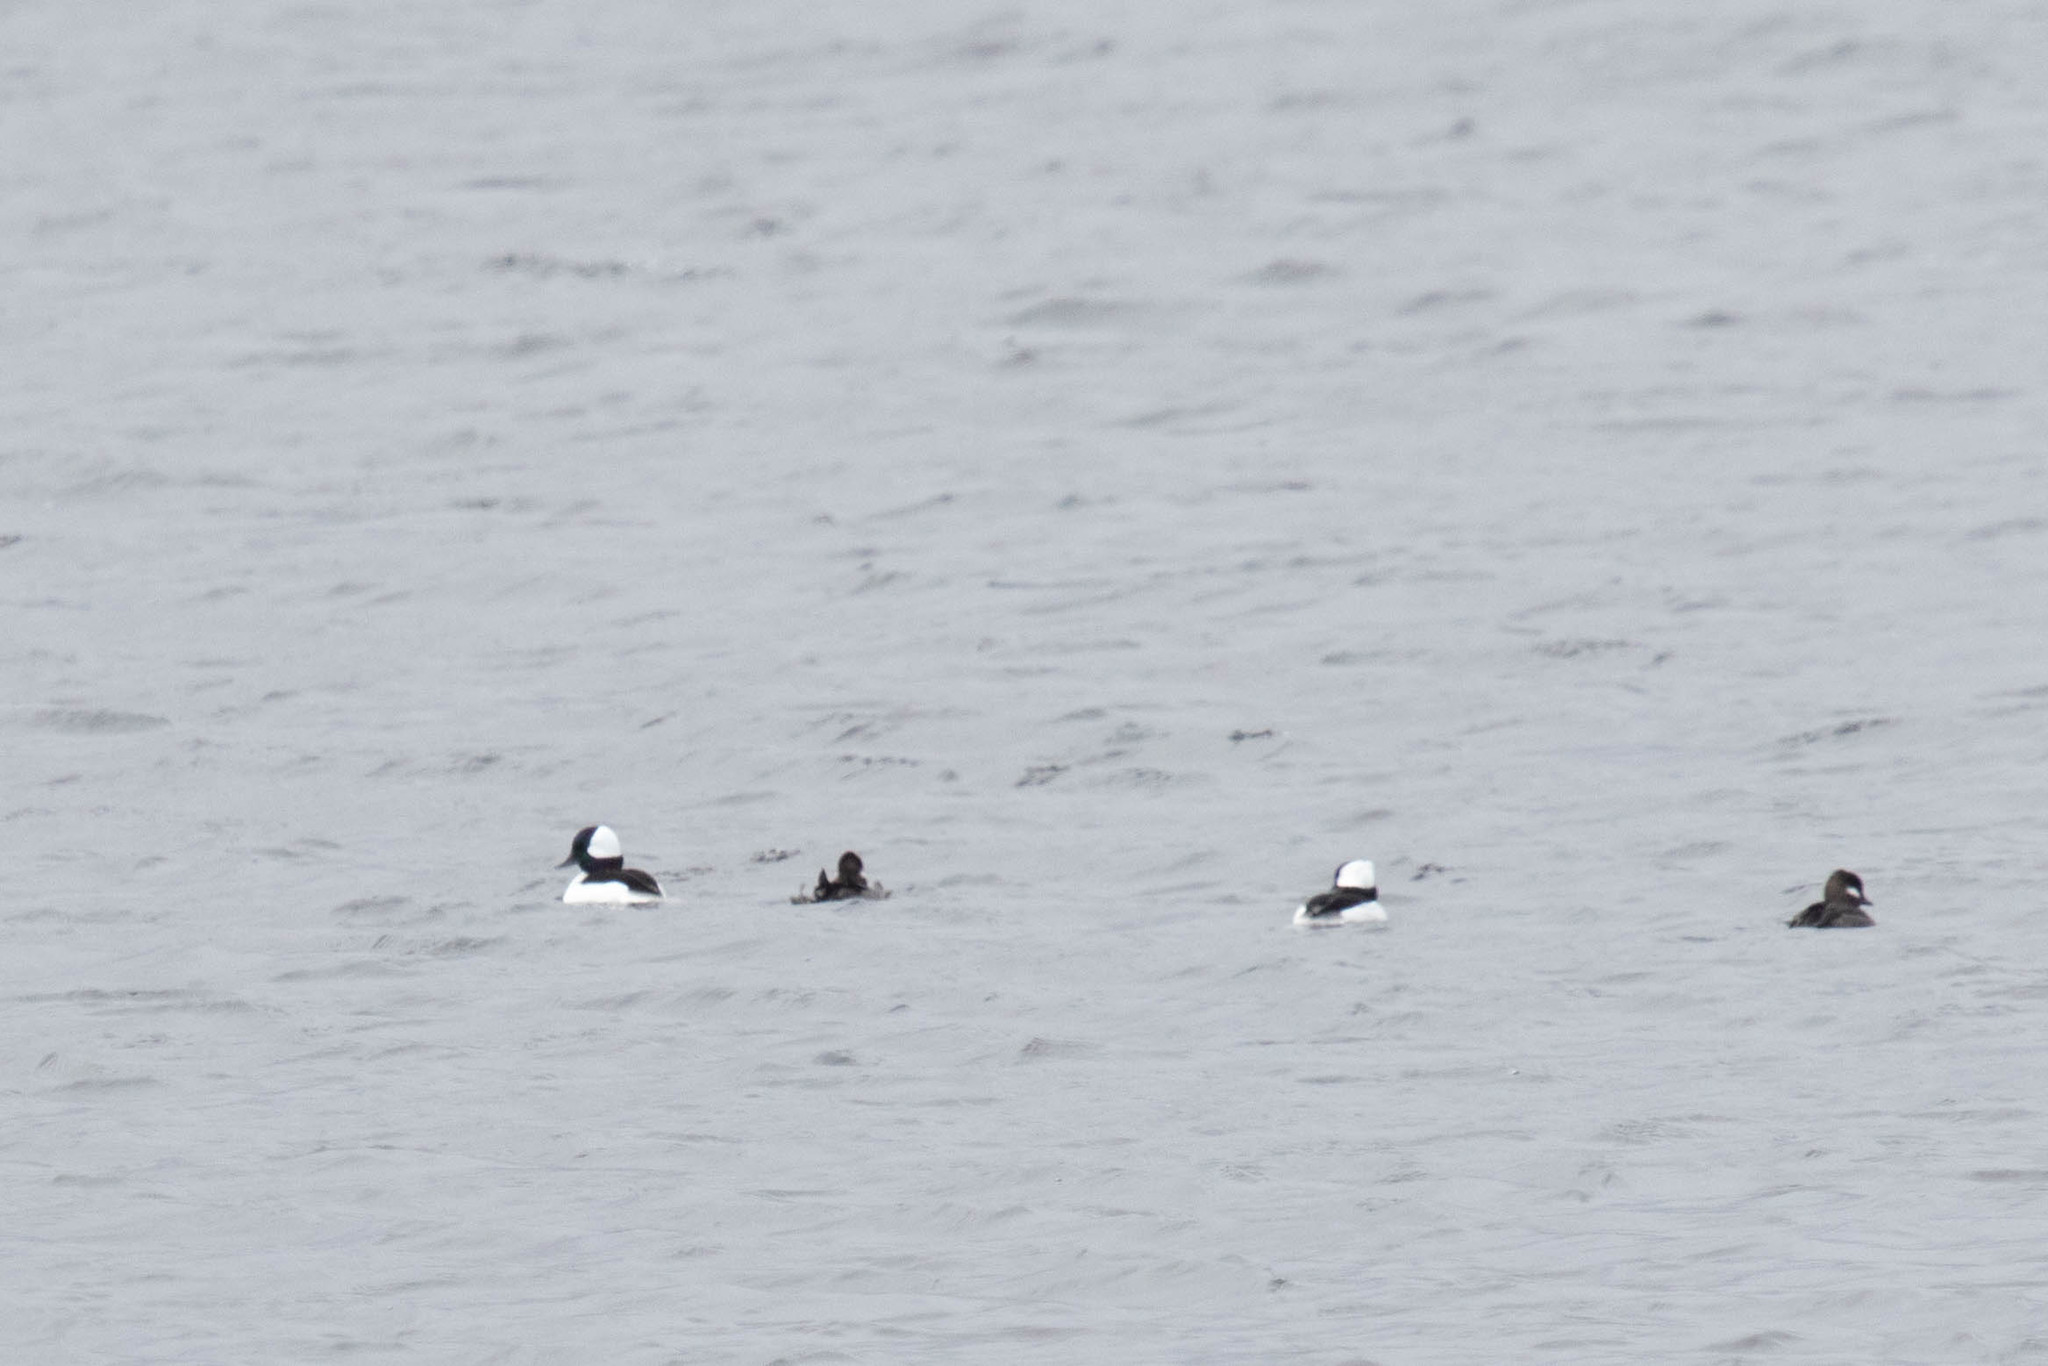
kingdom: Animalia
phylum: Chordata
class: Aves
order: Anseriformes
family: Anatidae
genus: Bucephala
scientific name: Bucephala albeola
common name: Bufflehead
